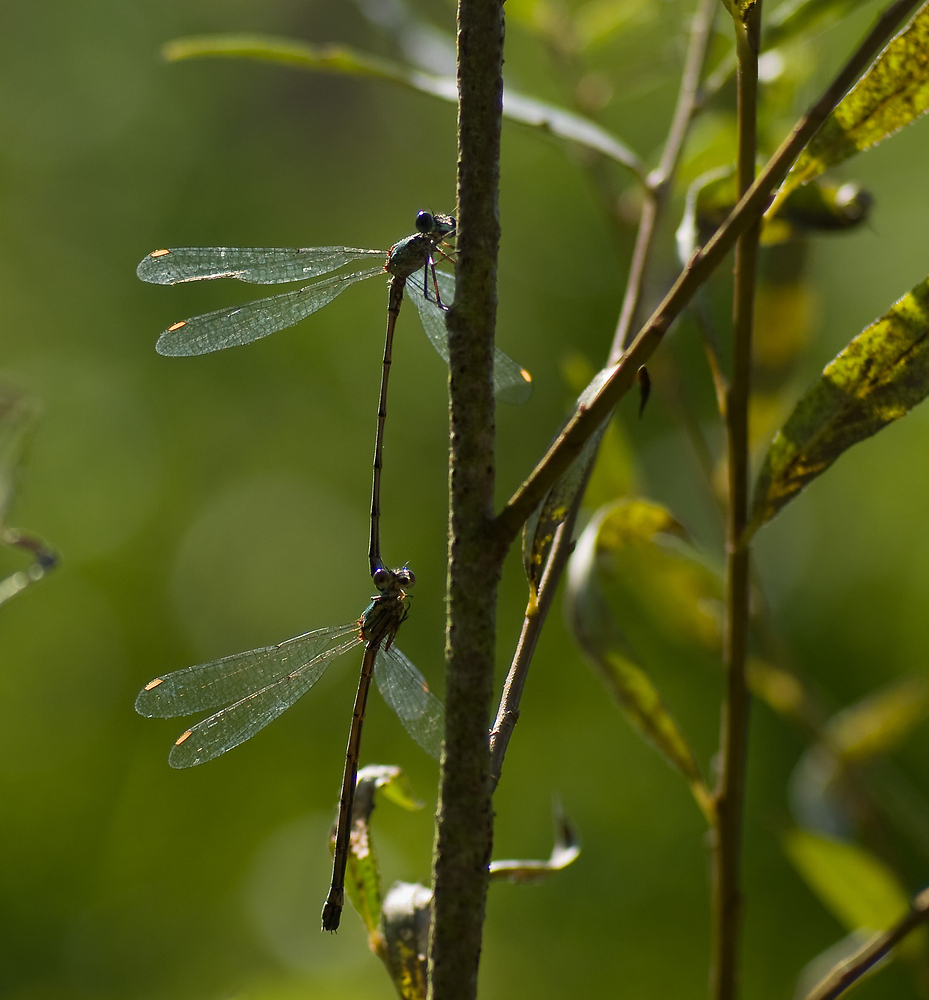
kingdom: Animalia
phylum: Arthropoda
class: Insecta
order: Odonata
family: Lestidae
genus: Chalcolestes
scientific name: Chalcolestes viridis
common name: Green emerald damselfly
